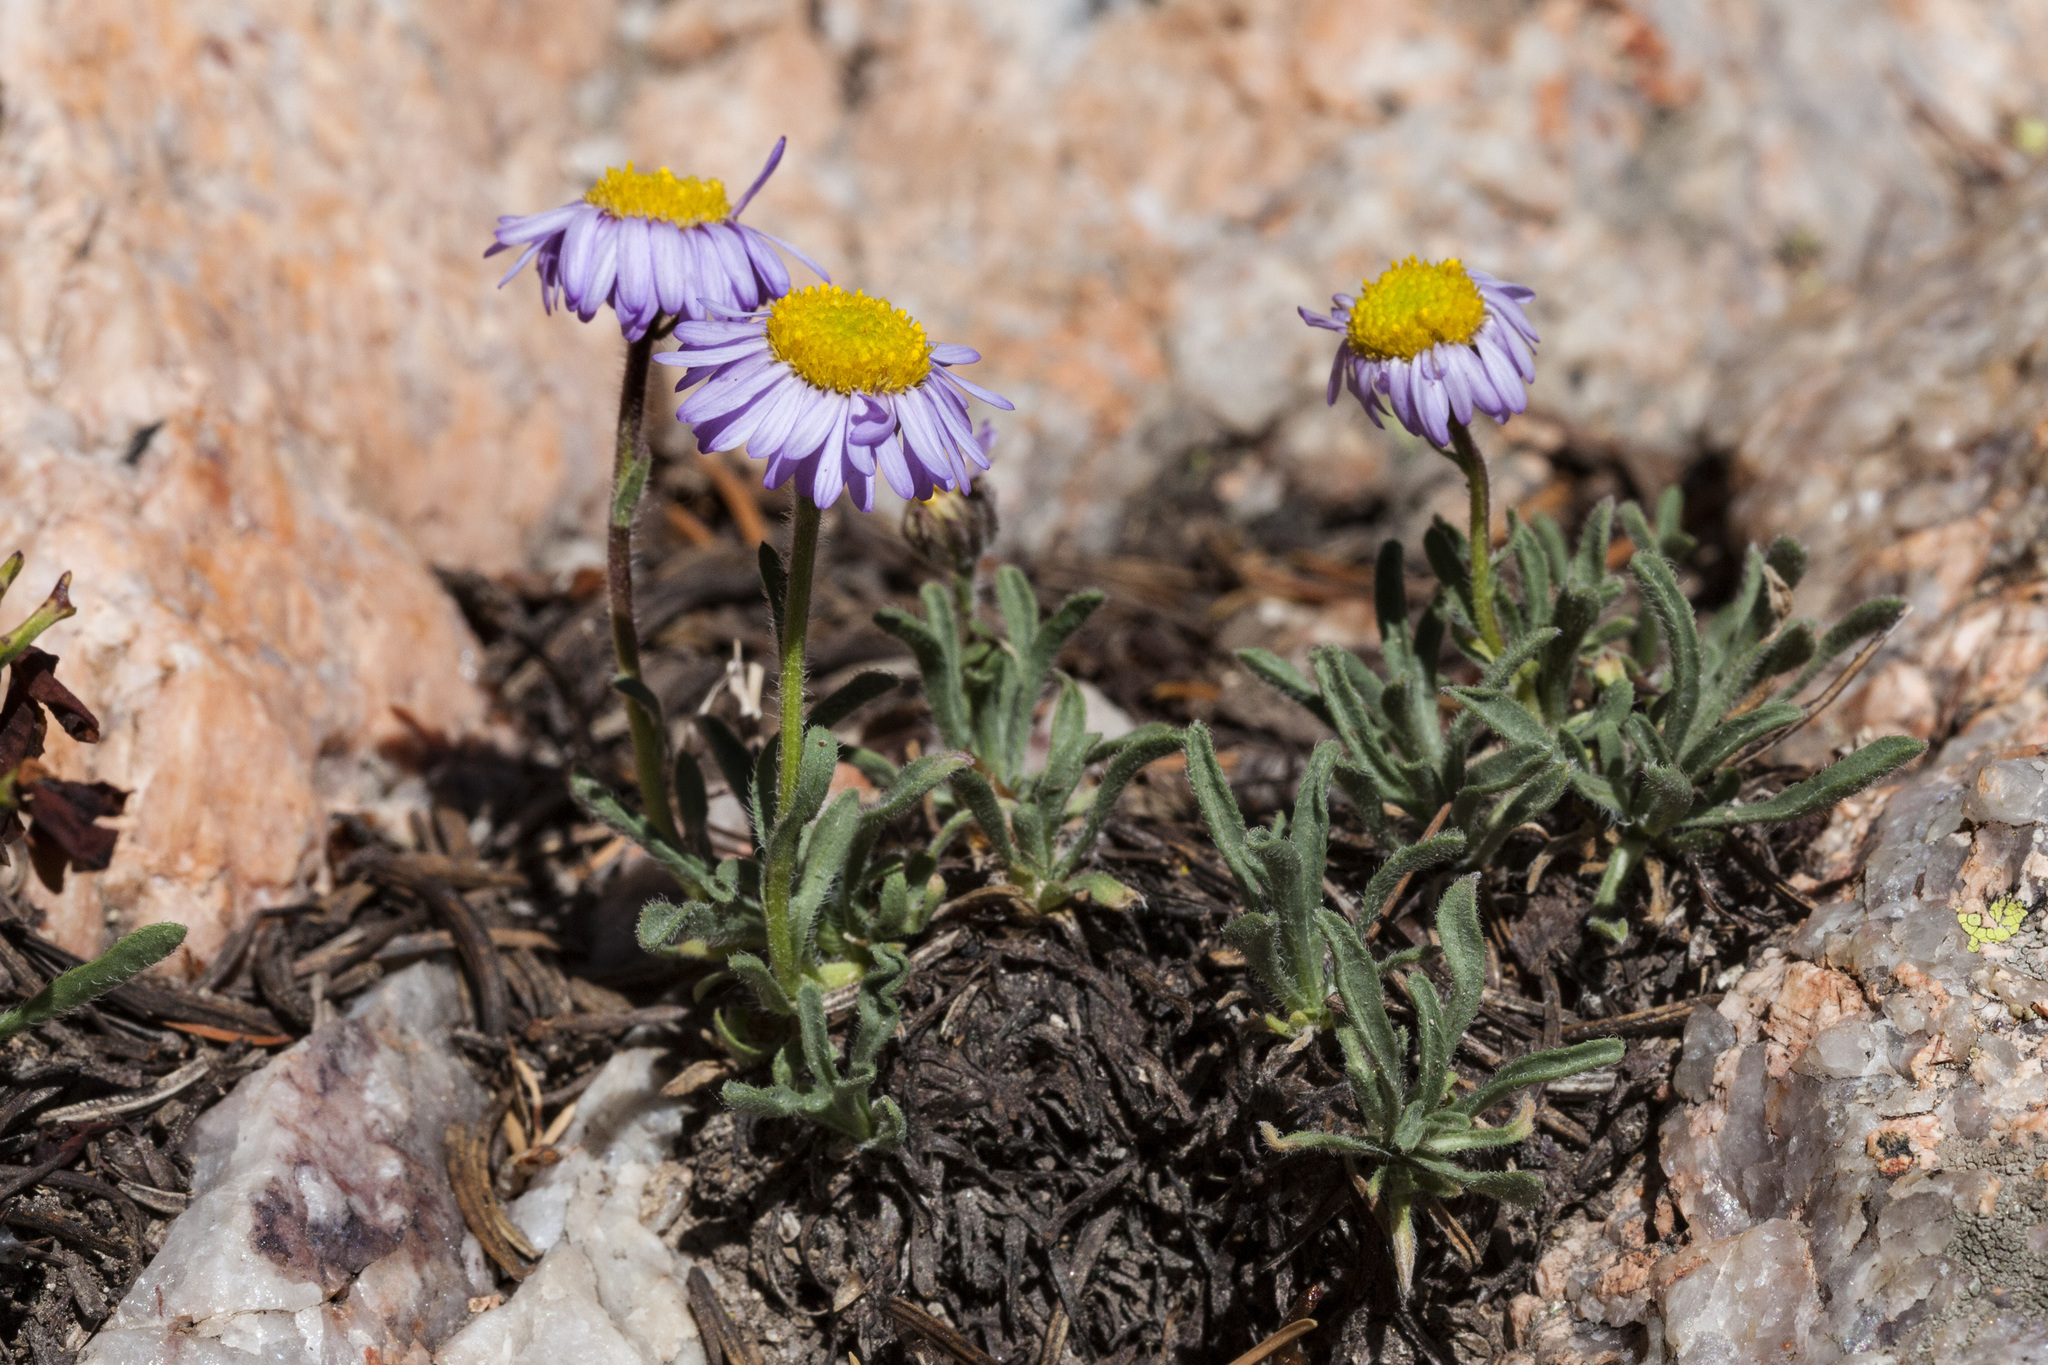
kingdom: Plantae
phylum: Tracheophyta
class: Magnoliopsida
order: Asterales
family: Asteraceae
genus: Erigeron
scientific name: Erigeron vetensis
